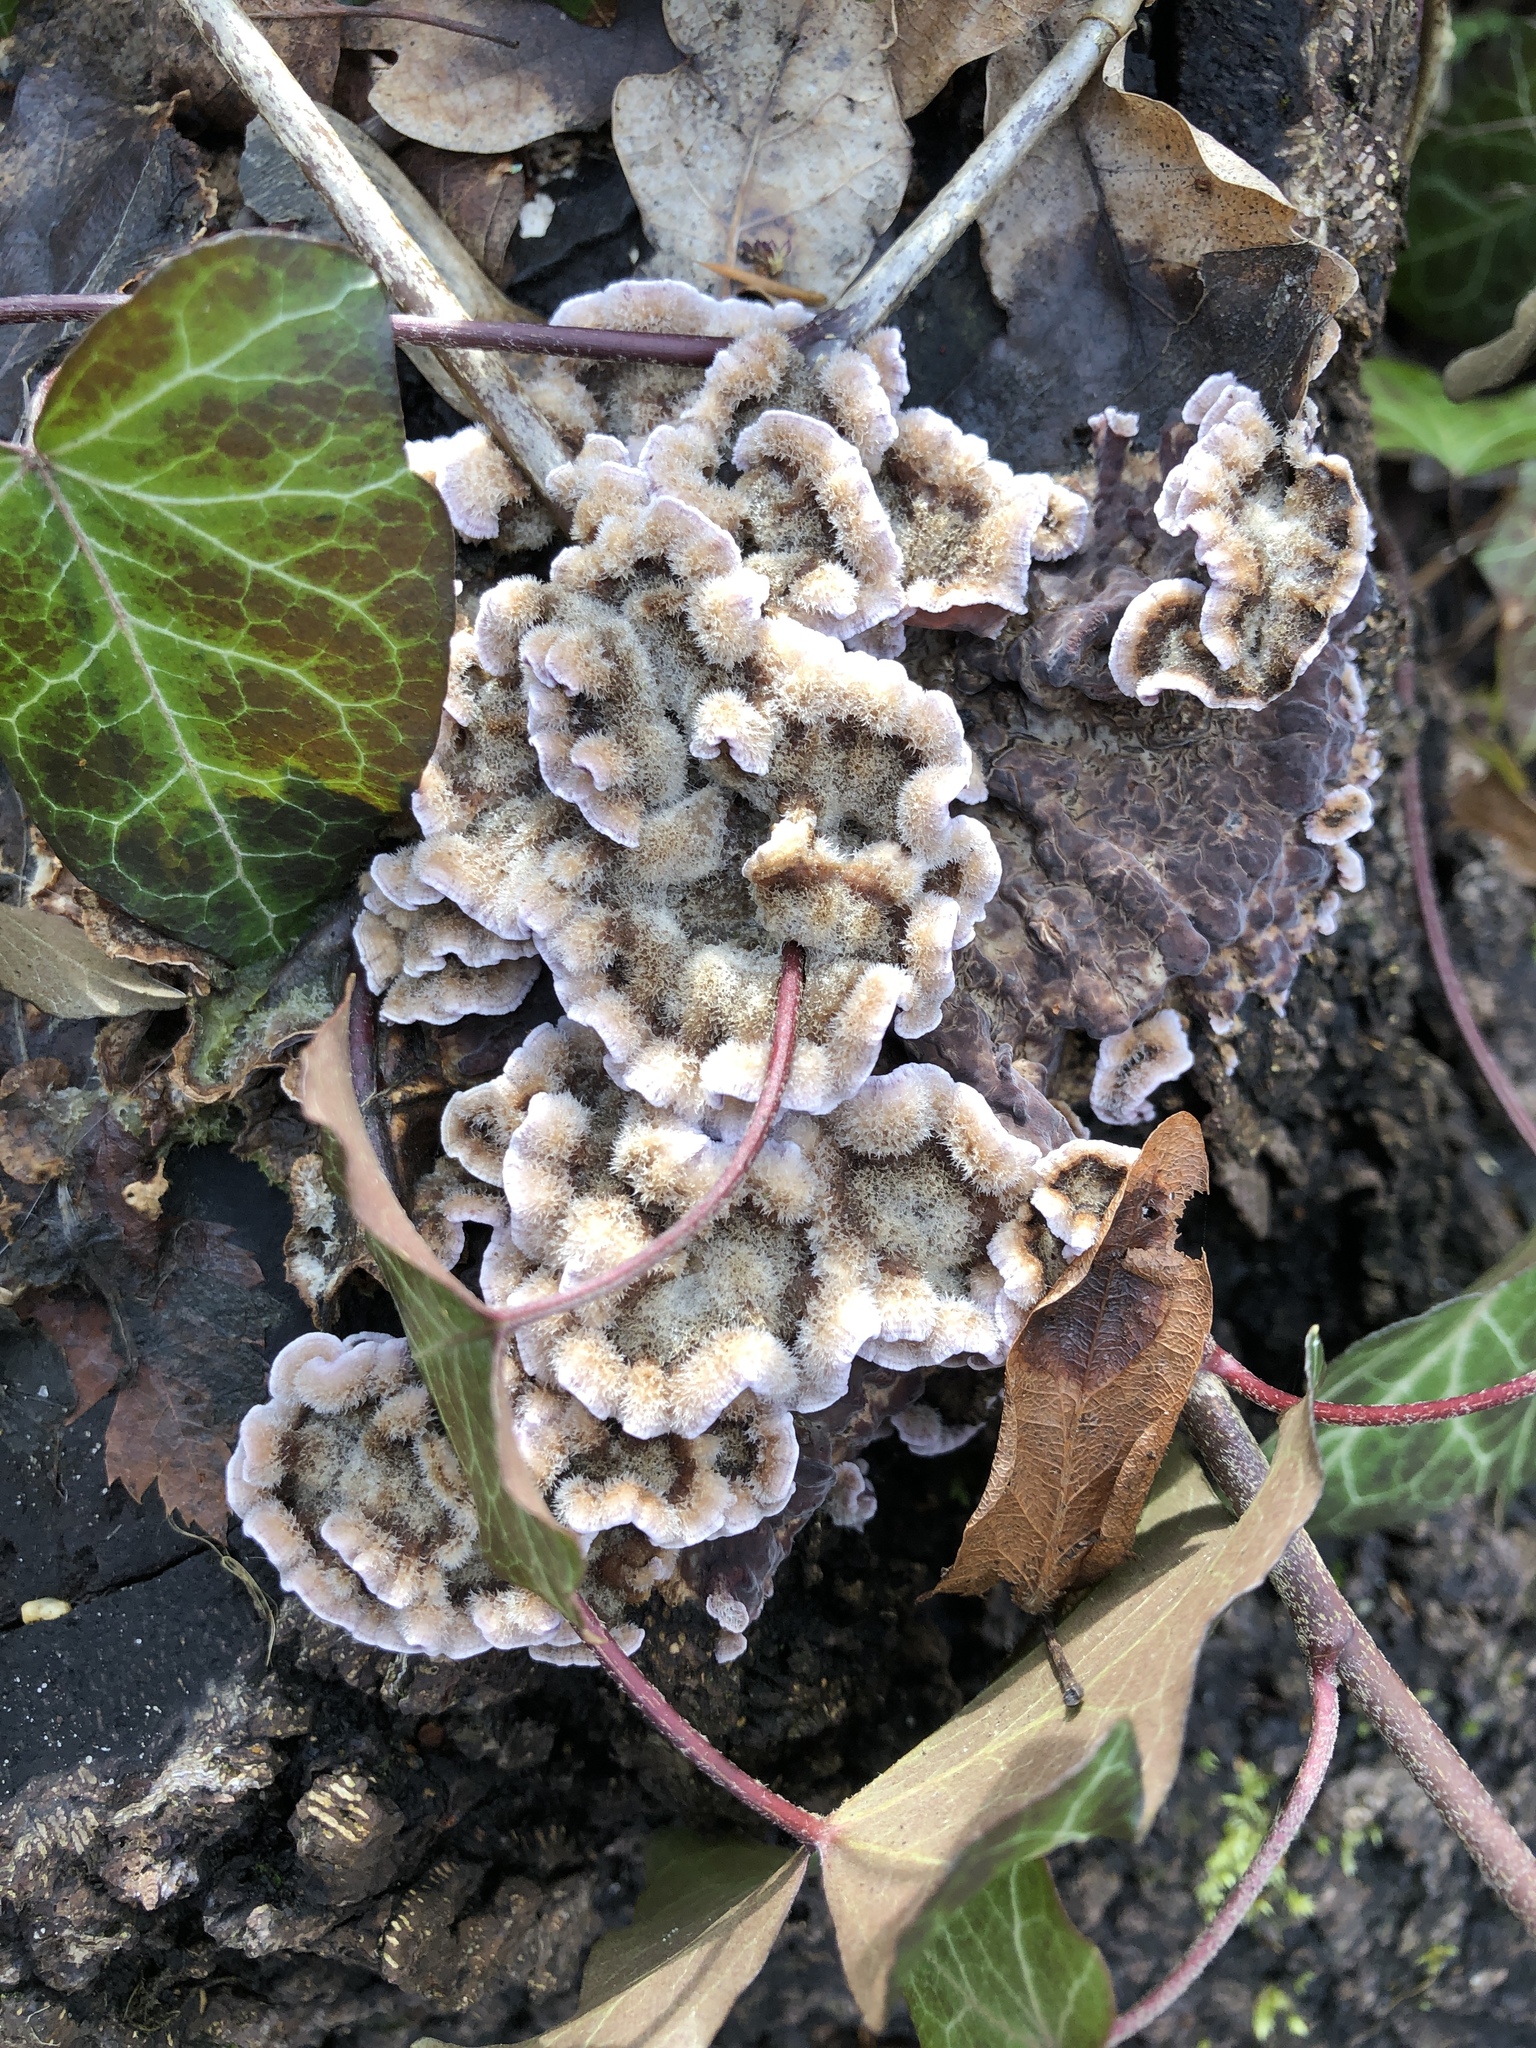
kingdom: Fungi
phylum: Basidiomycota
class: Agaricomycetes
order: Agaricales
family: Cyphellaceae
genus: Chondrostereum
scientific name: Chondrostereum purpureum
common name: Silver leaf disease
